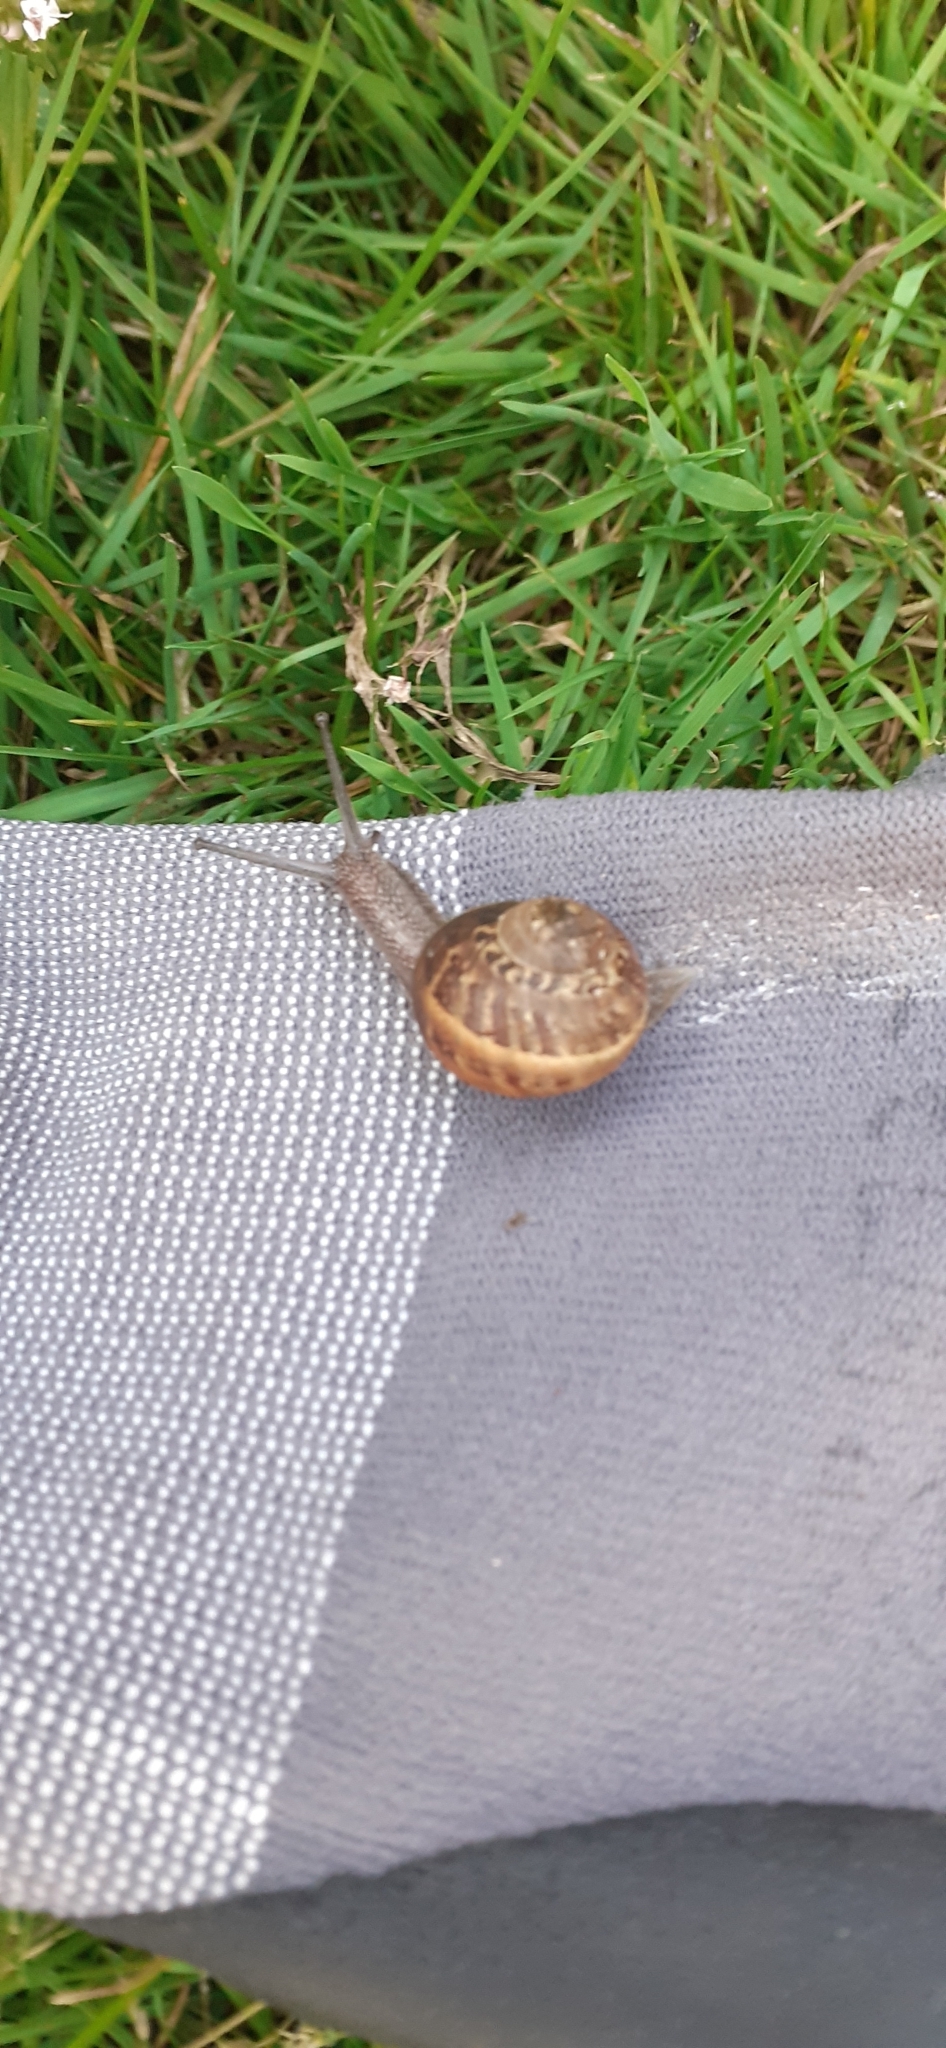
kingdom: Animalia
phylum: Mollusca
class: Gastropoda
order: Stylommatophora
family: Helicidae
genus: Cornu
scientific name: Cornu aspersum
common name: Brown garden snail
